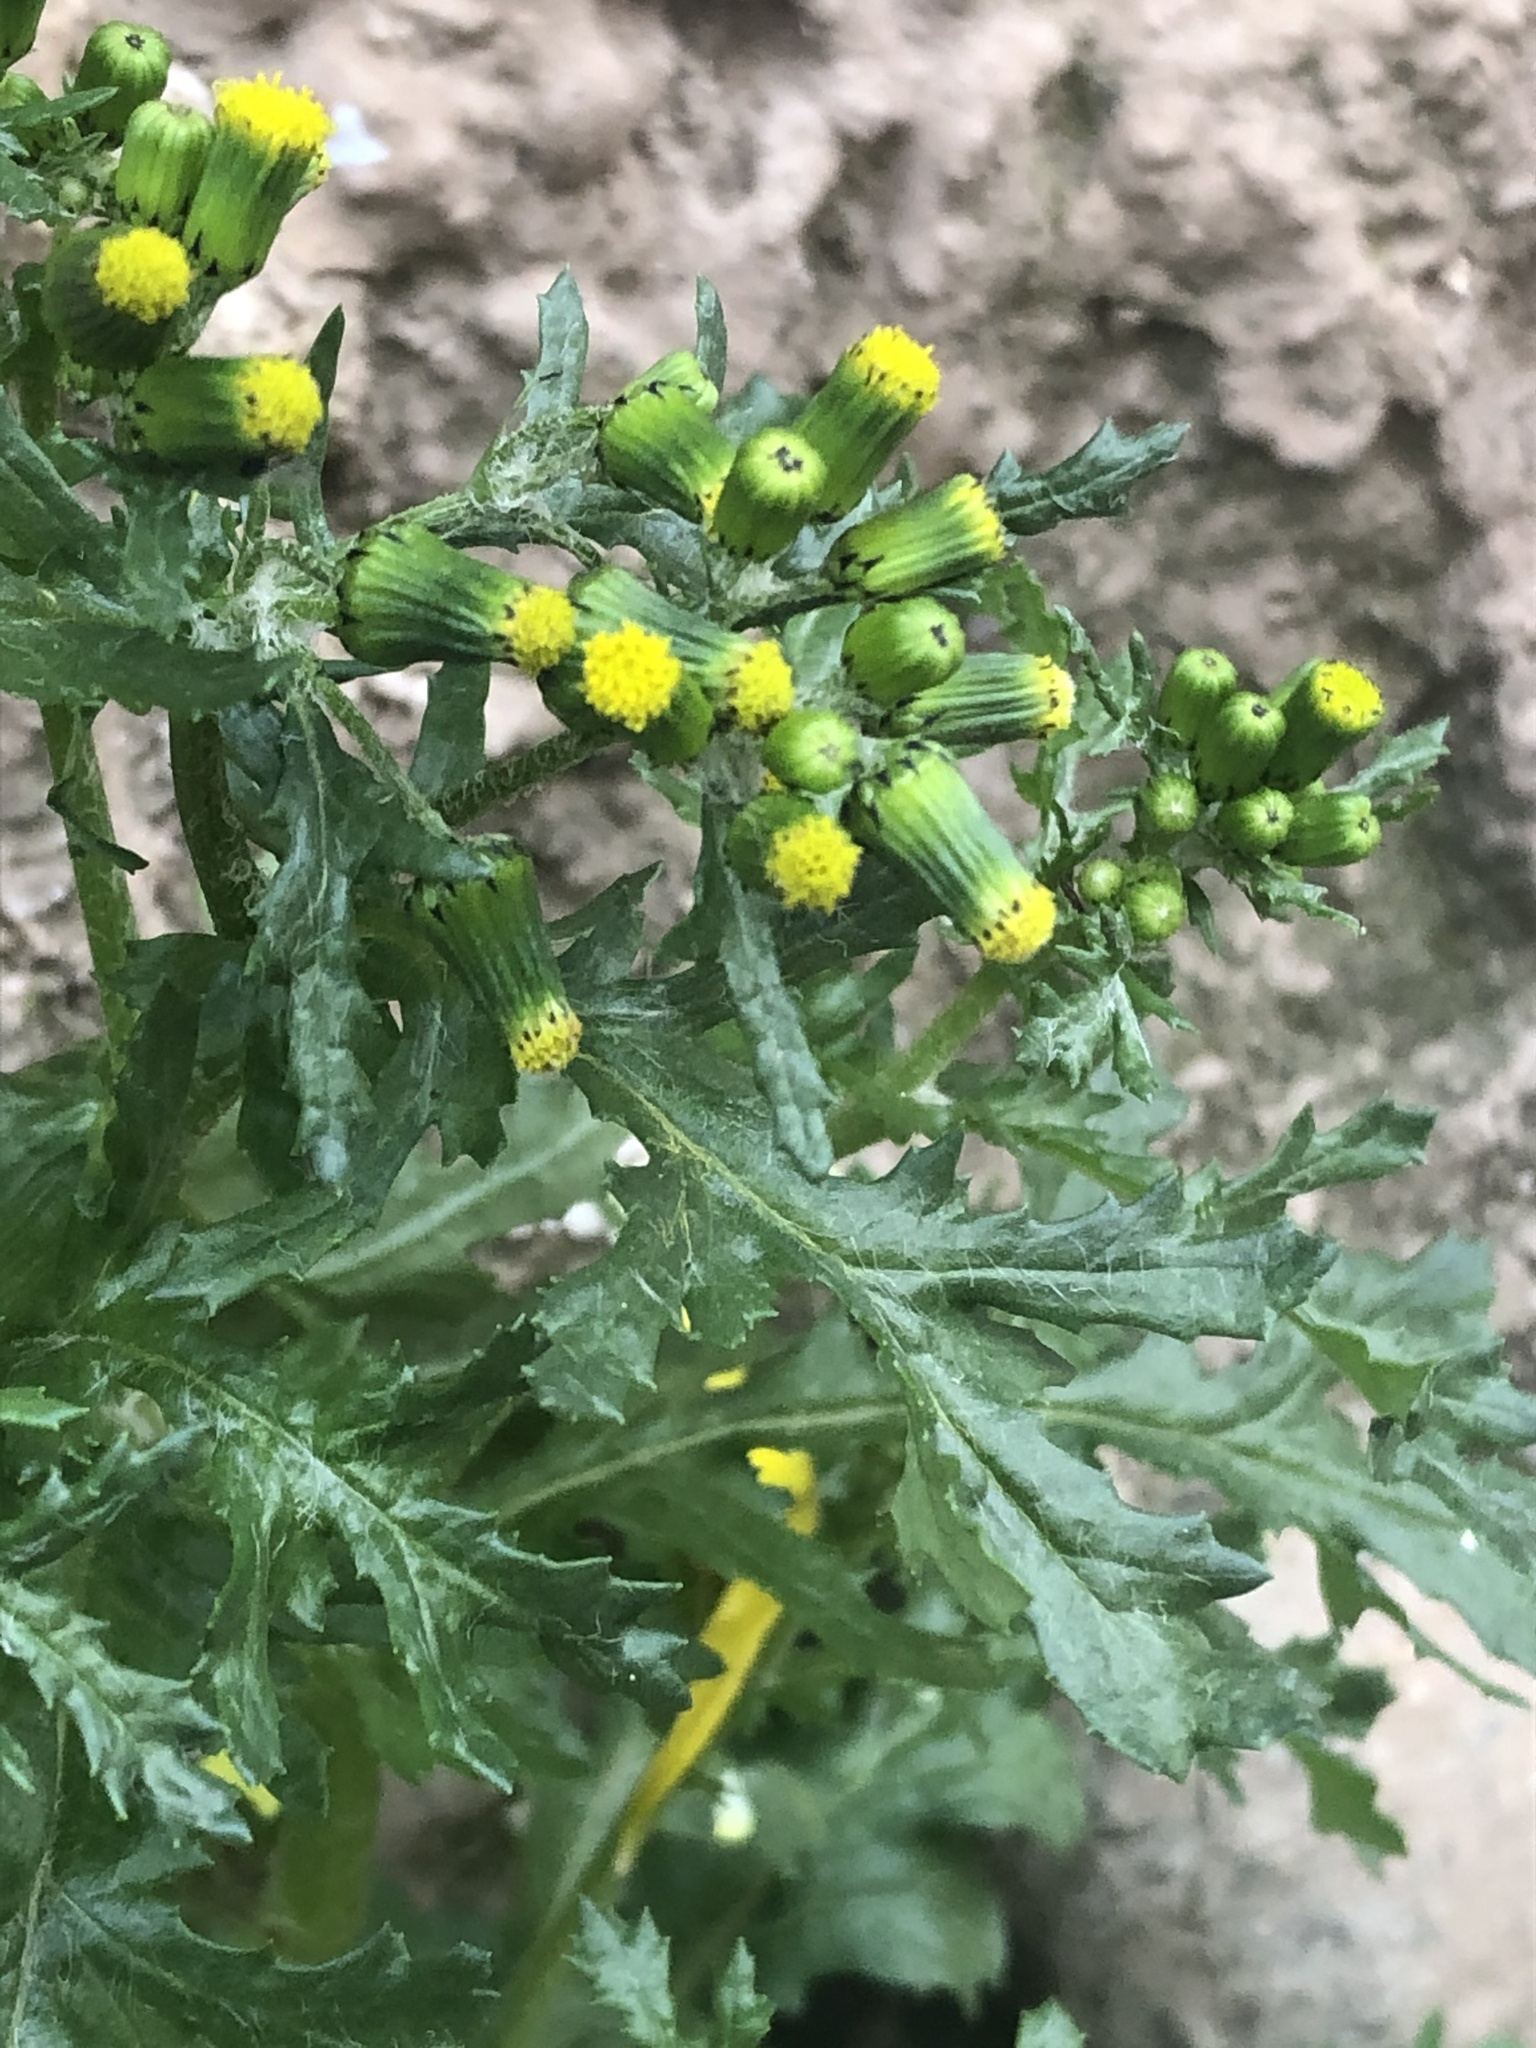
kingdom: Plantae
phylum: Tracheophyta
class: Magnoliopsida
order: Asterales
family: Asteraceae
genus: Senecio
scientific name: Senecio vulgaris
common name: Old-man-in-the-spring
